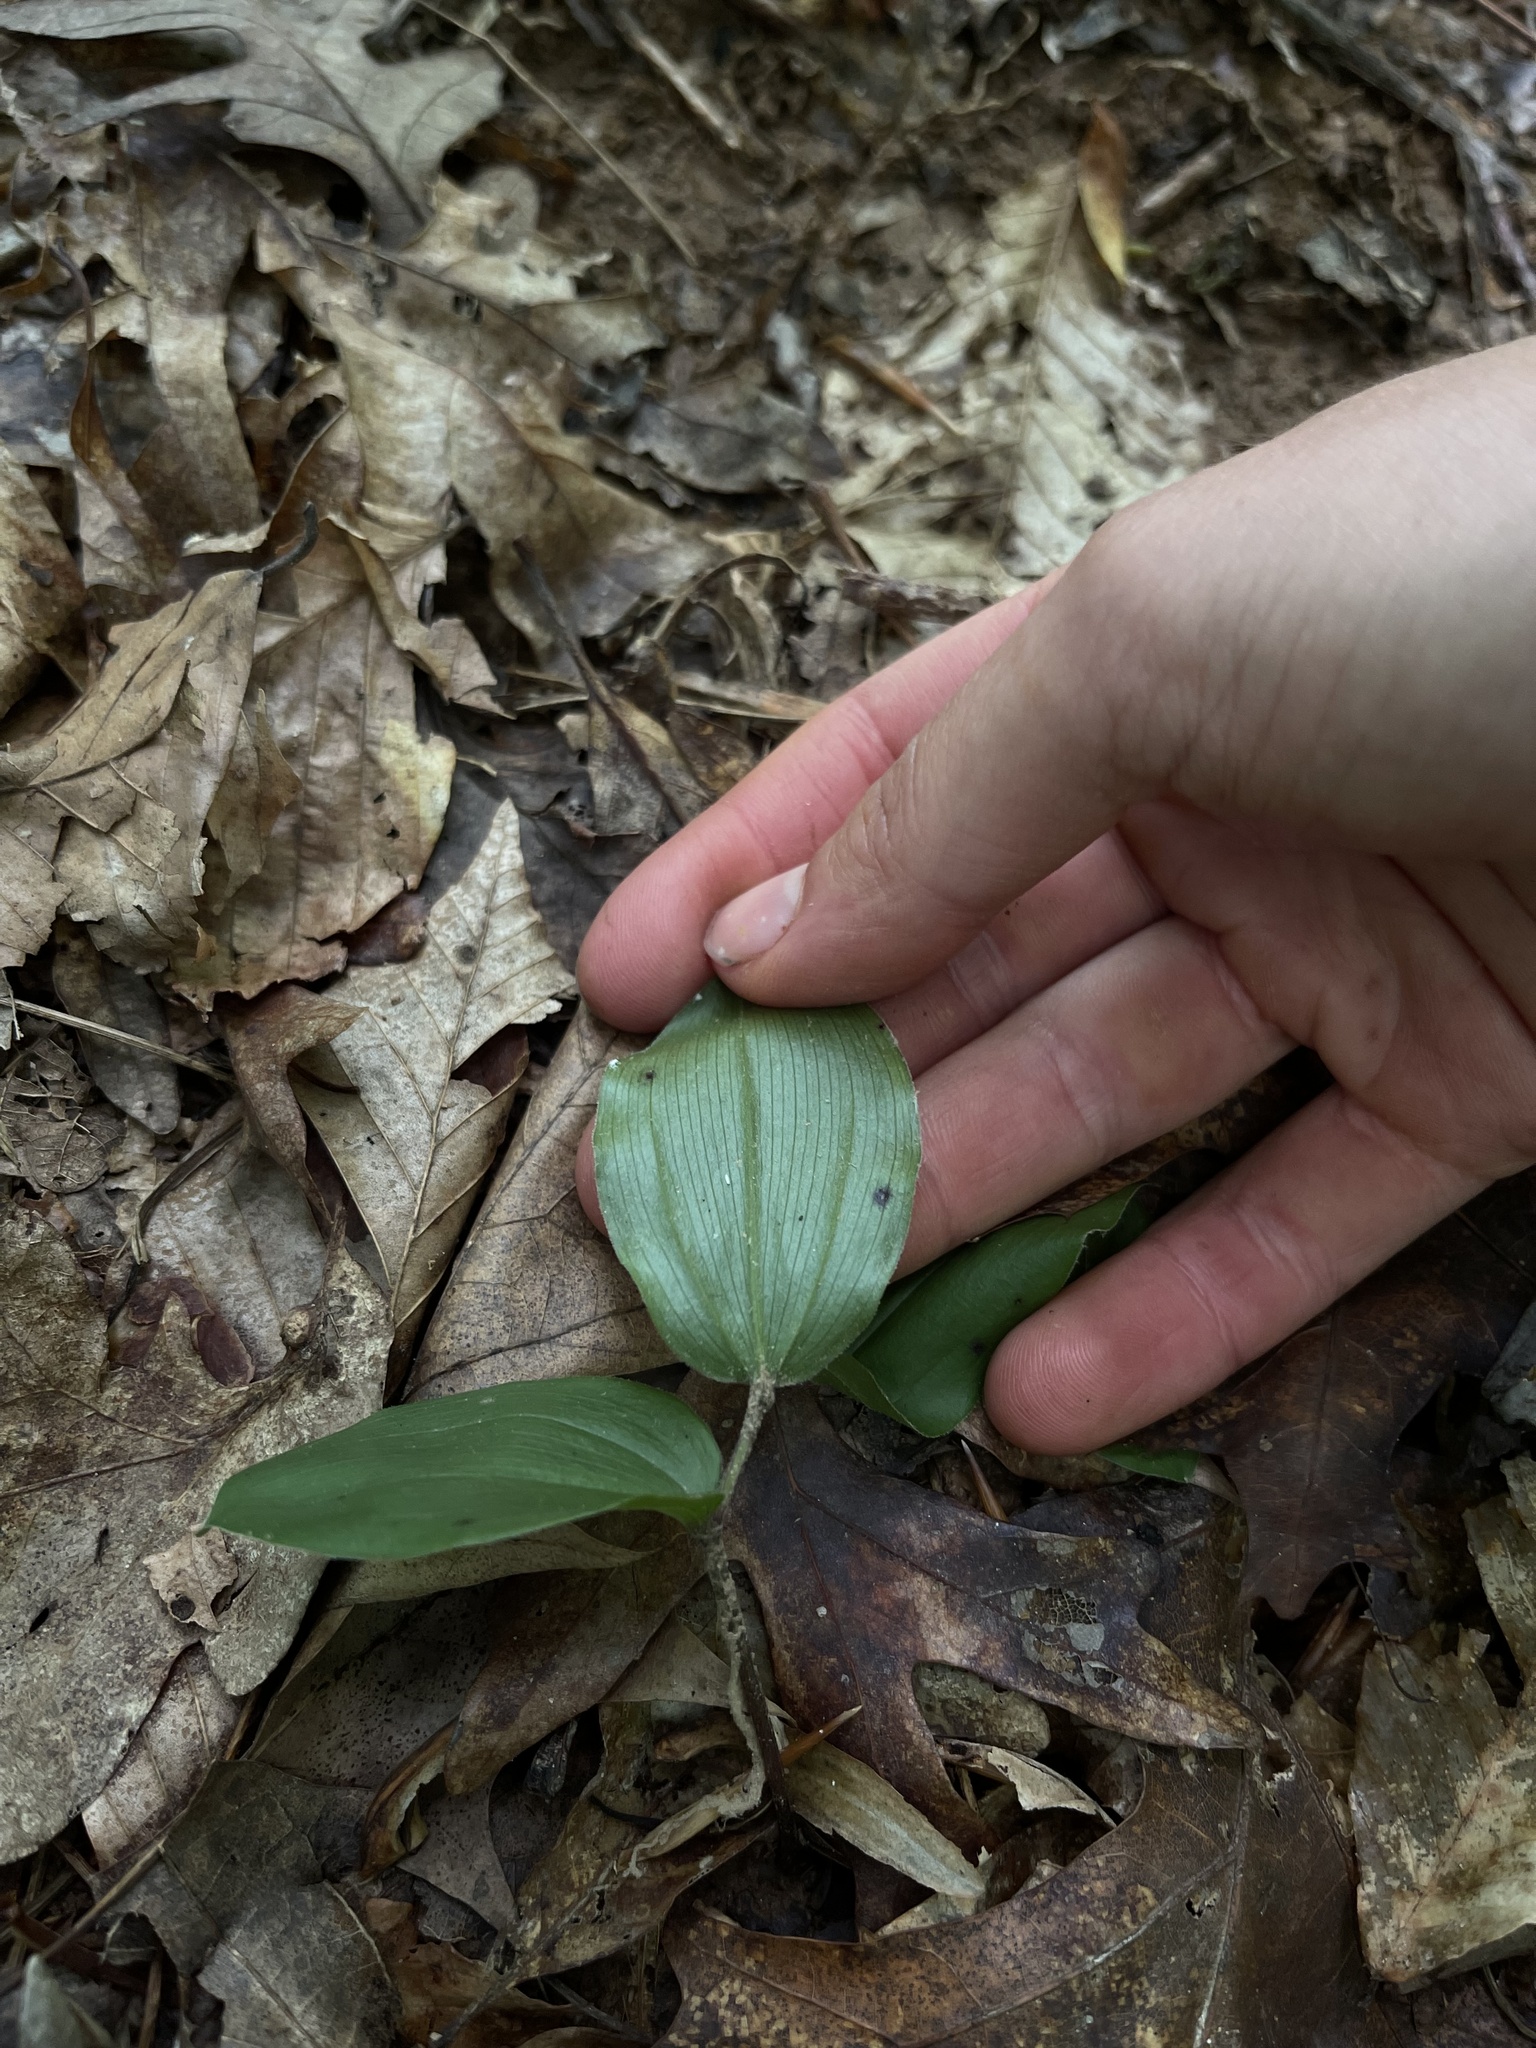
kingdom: Plantae
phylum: Tracheophyta
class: Liliopsida
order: Asparagales
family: Asparagaceae
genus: Maianthemum
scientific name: Maianthemum racemosum
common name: False spikenard
